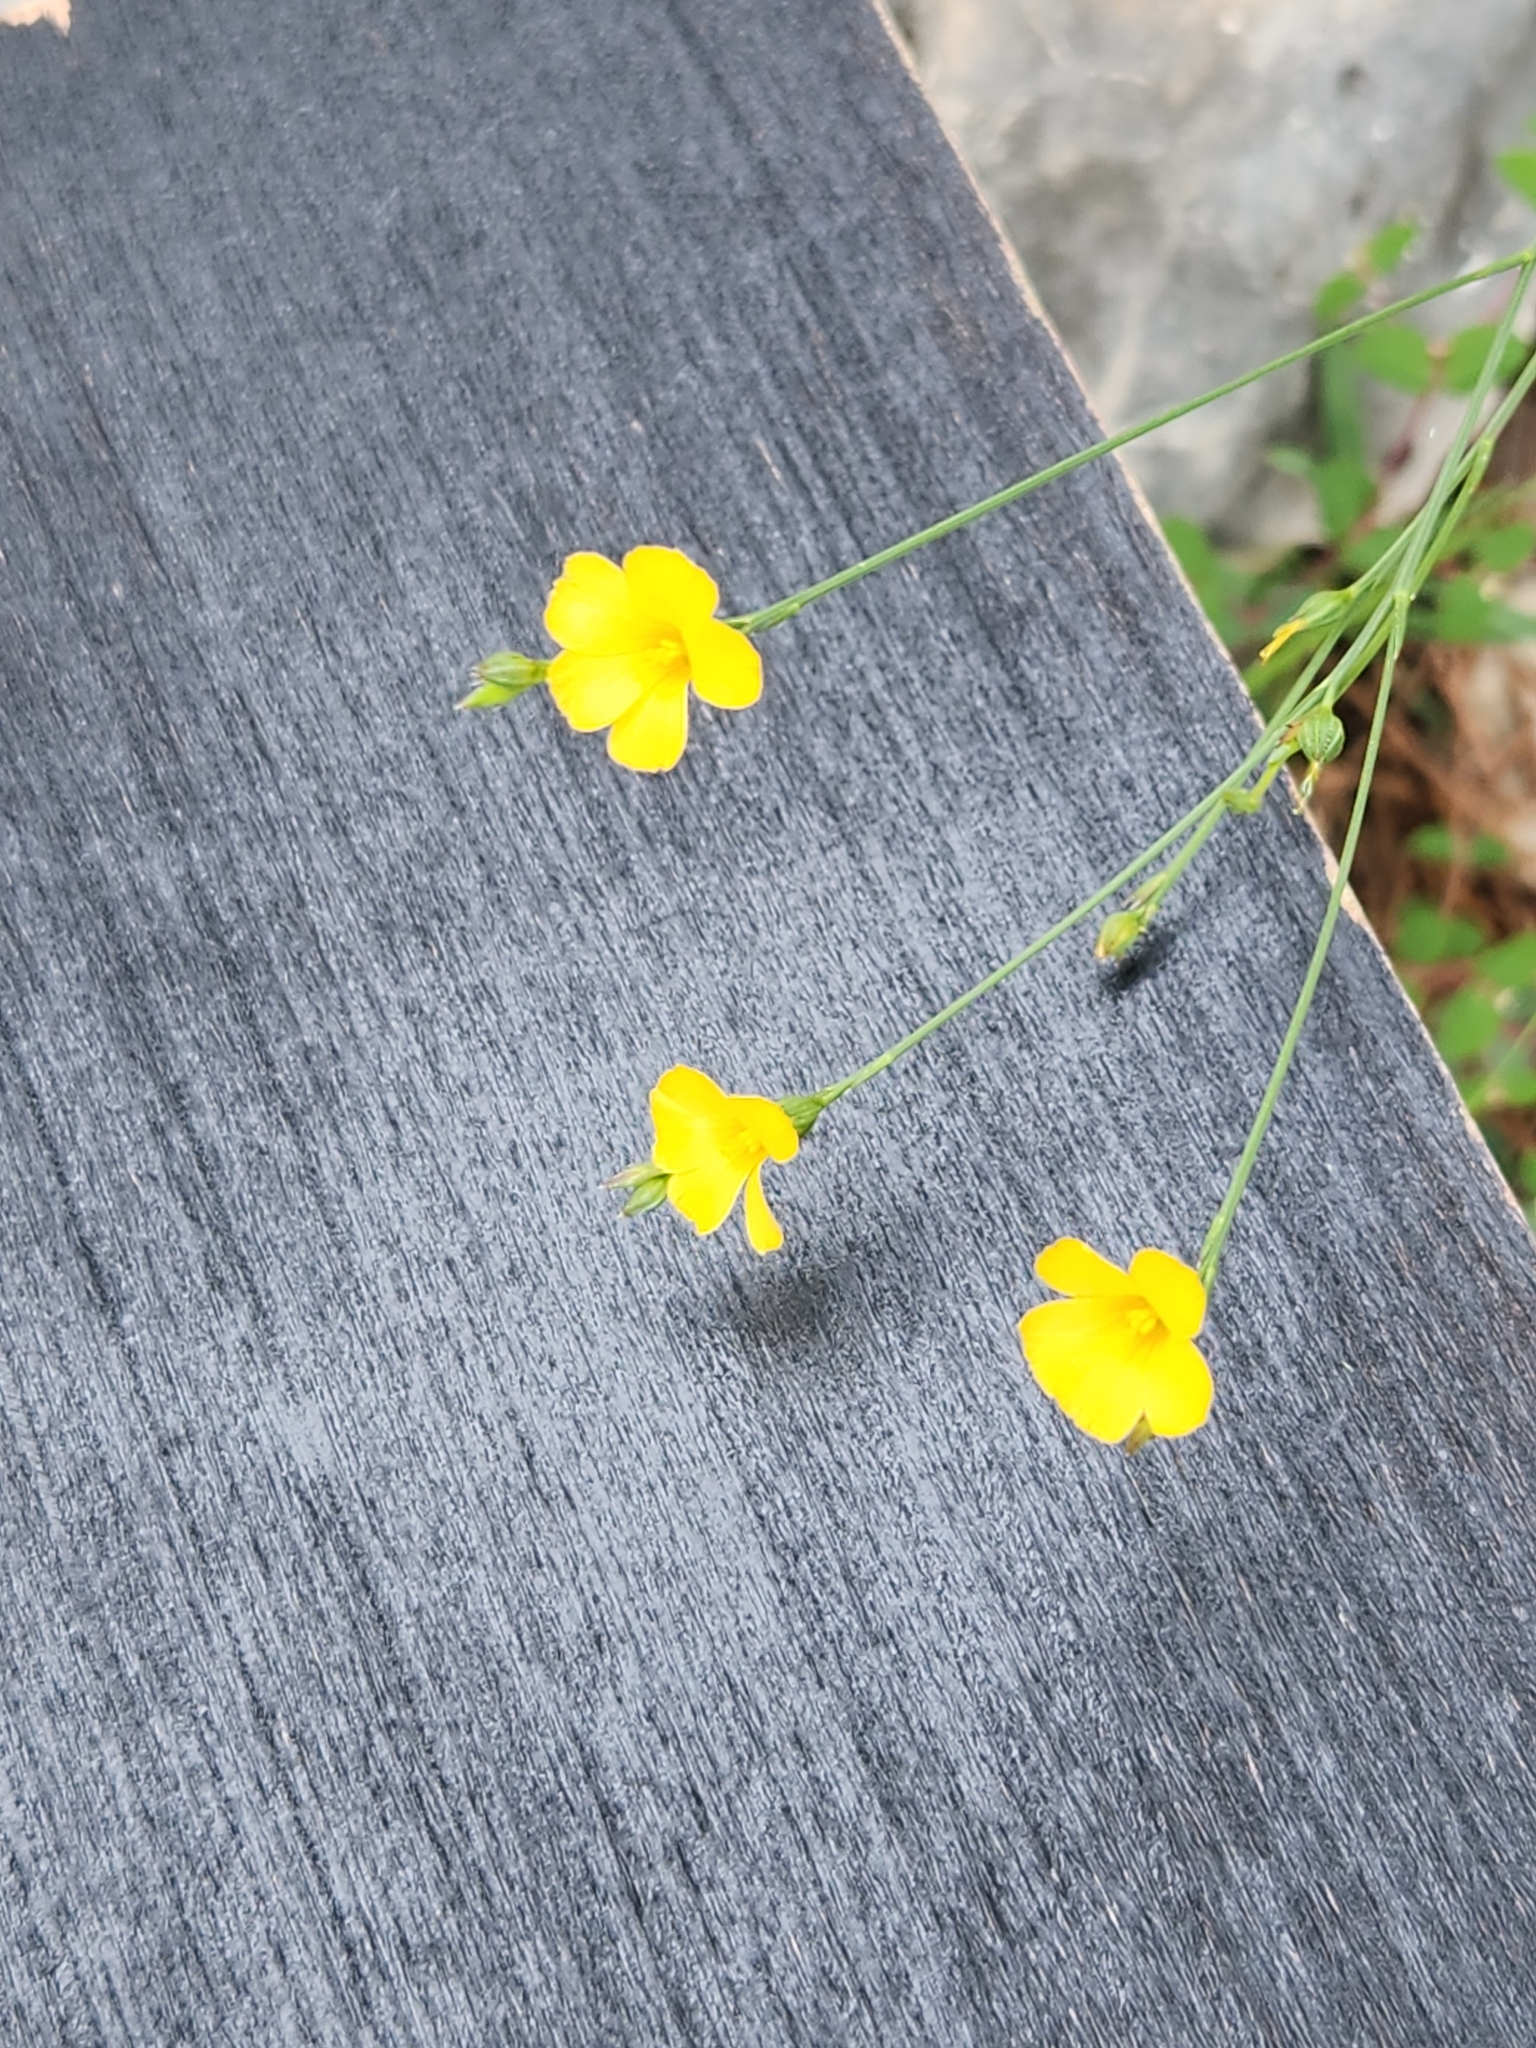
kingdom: Plantae
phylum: Tracheophyta
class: Magnoliopsida
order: Malpighiales
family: Linaceae
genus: Linum
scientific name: Linum rupestre
